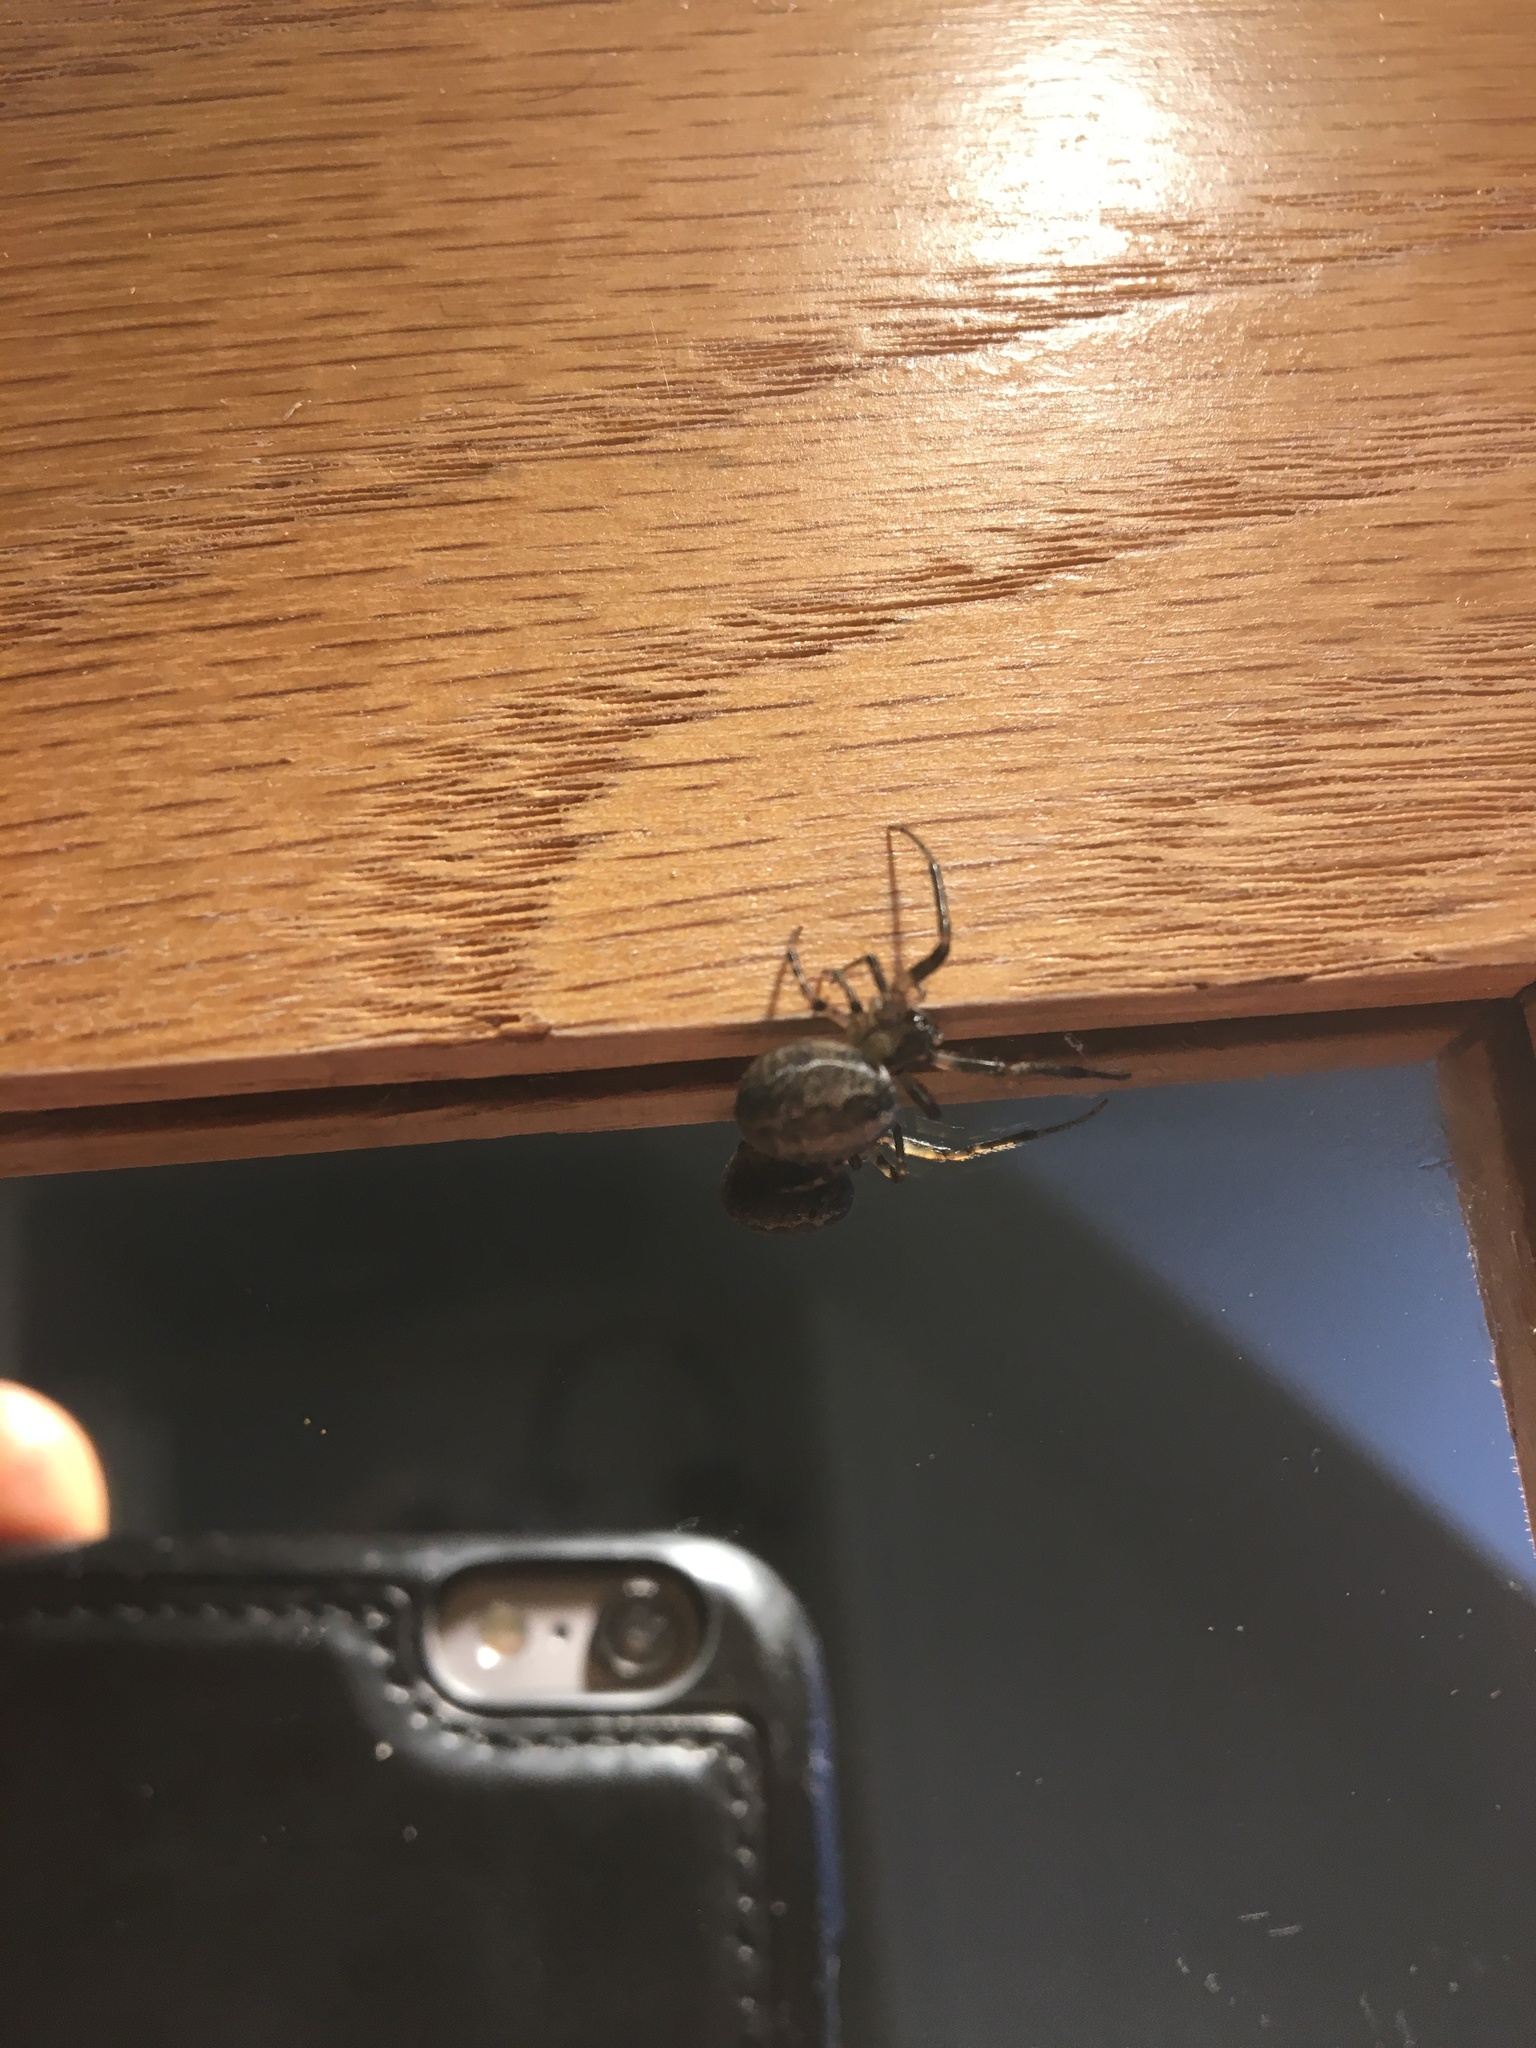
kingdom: Animalia
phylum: Arthropoda
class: Arachnida
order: Araneae
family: Araneidae
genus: Zygiella
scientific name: Zygiella x-notata
